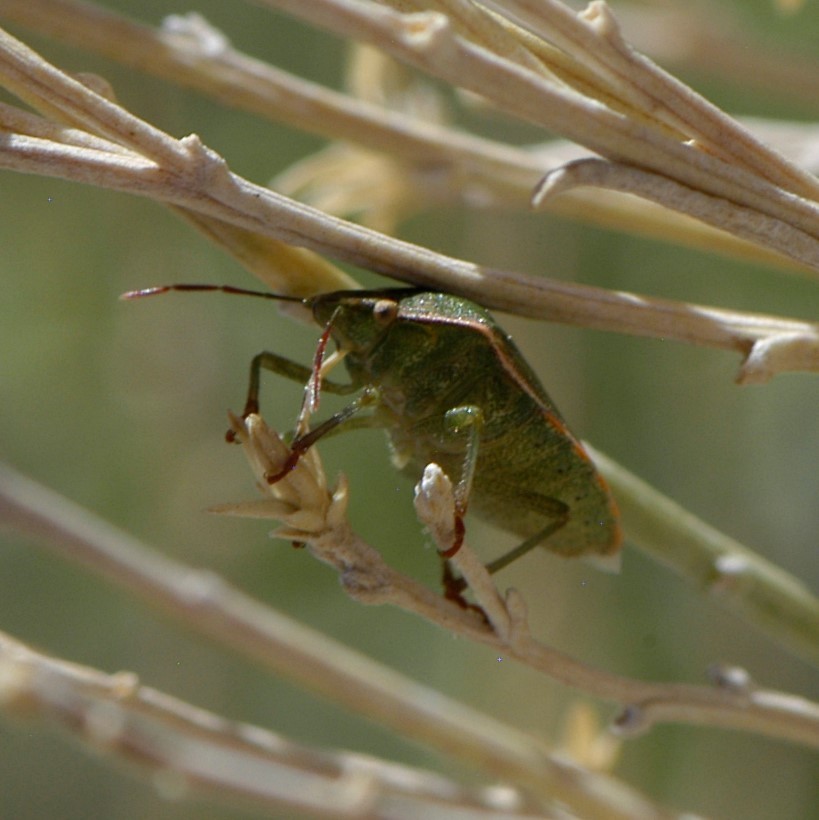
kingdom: Animalia
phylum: Arthropoda
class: Insecta
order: Hemiptera
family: Pentatomidae
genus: Thyanta
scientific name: Thyanta accerra
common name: Stink bug
